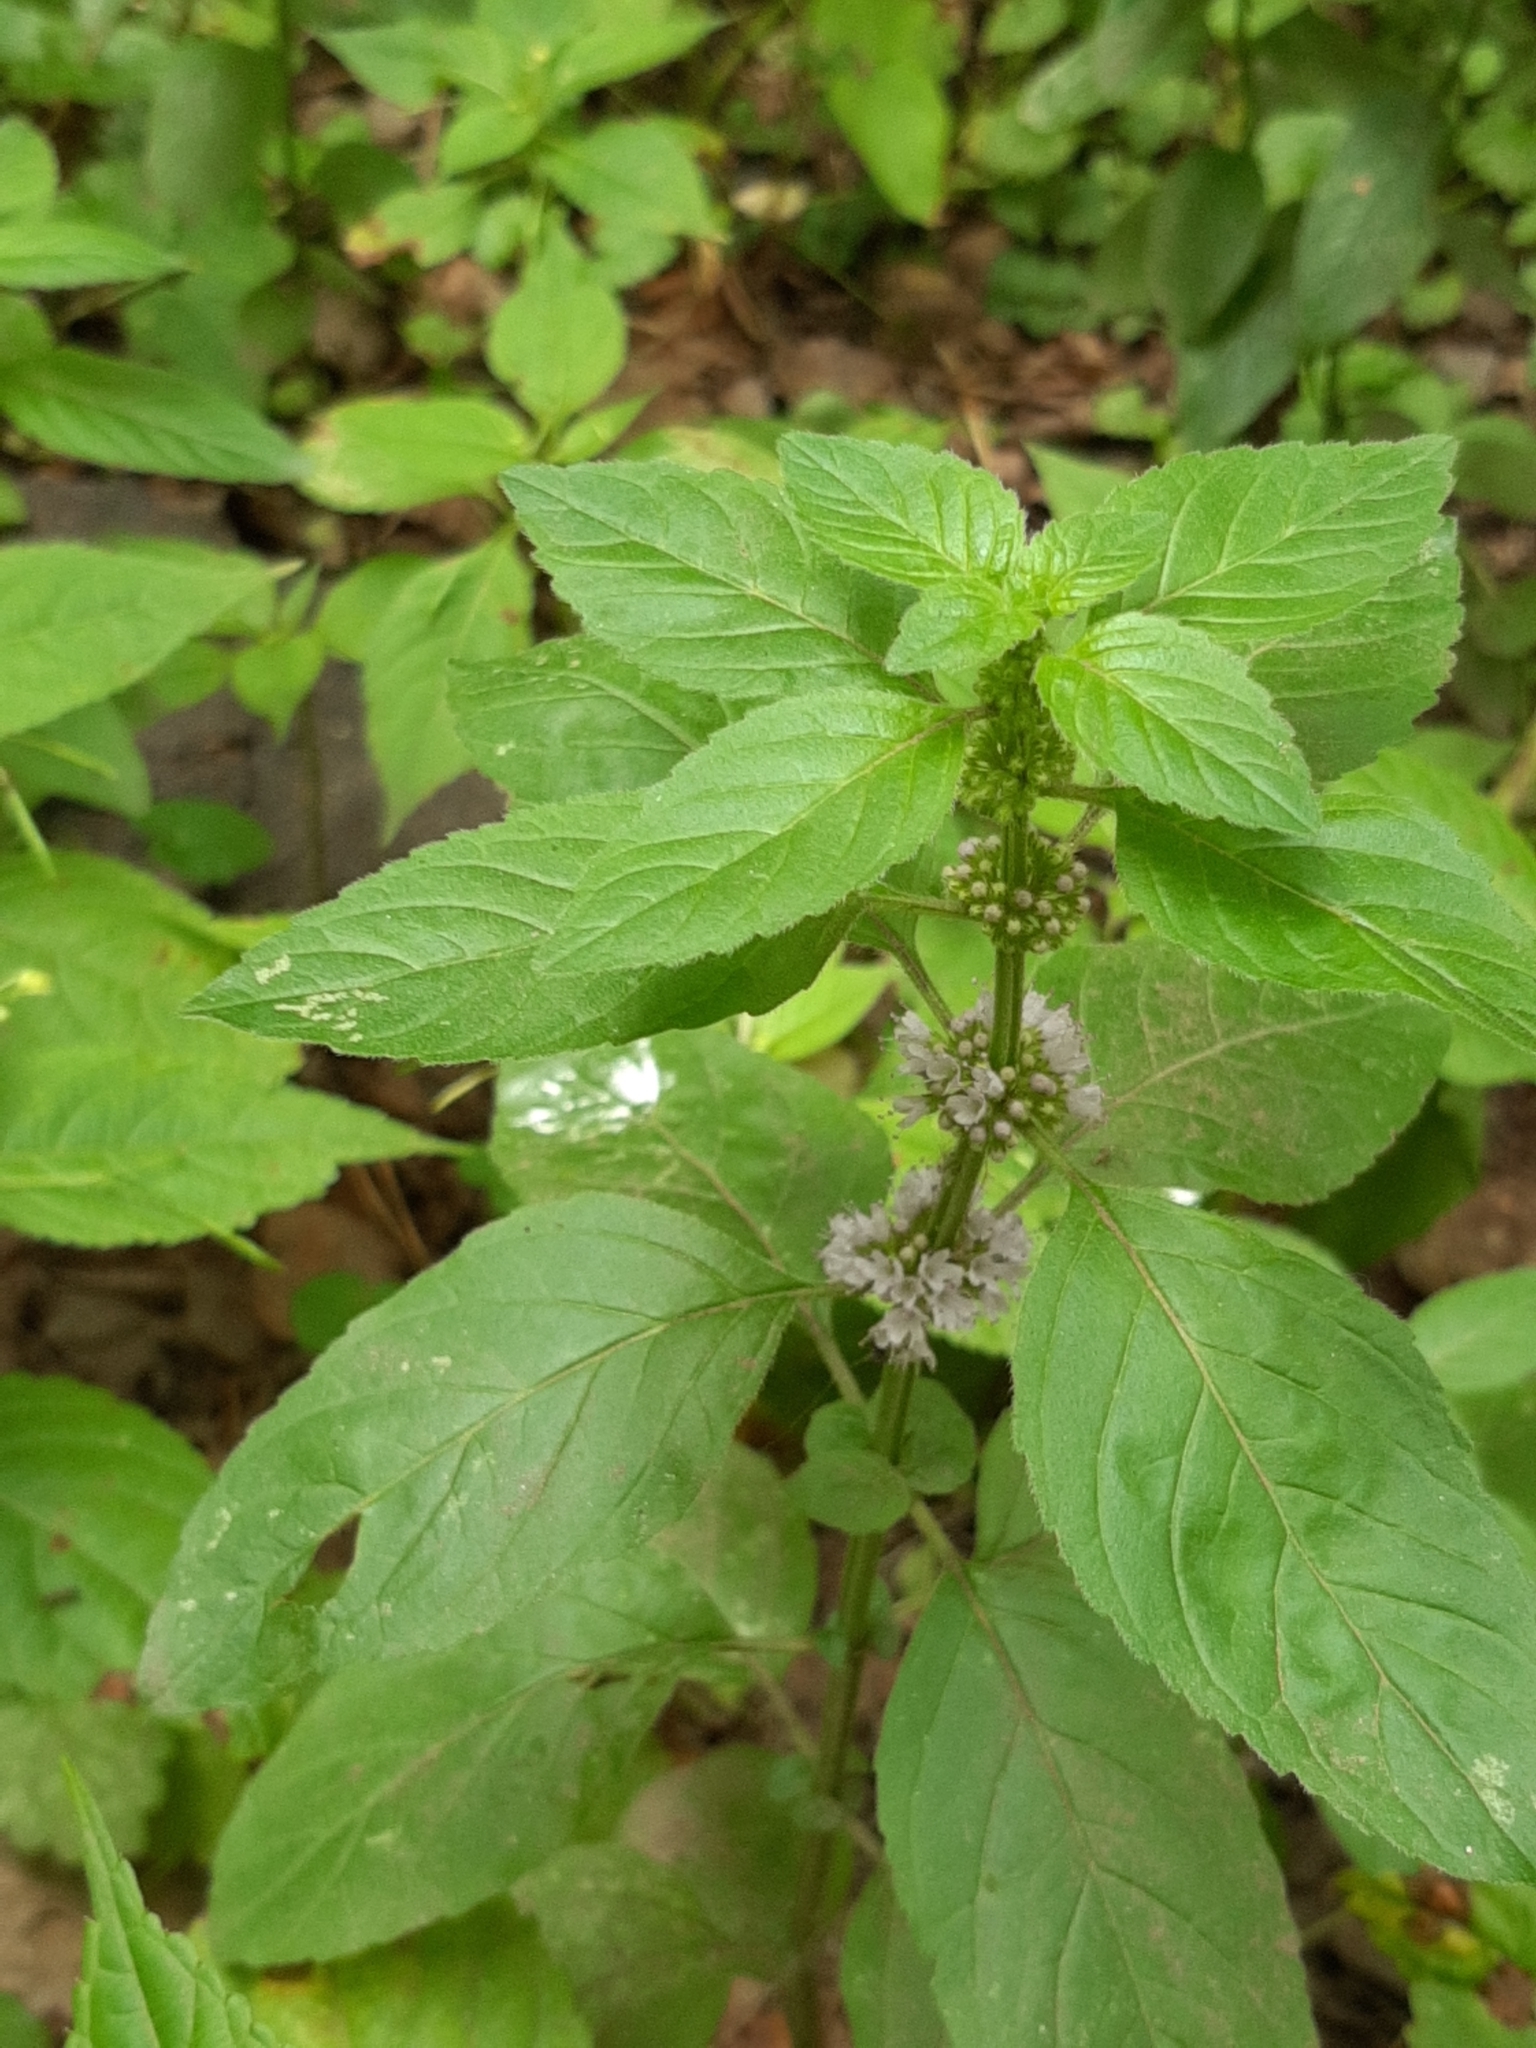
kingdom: Plantae
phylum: Tracheophyta
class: Magnoliopsida
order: Lamiales
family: Lamiaceae
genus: Mentha
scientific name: Mentha arvensis
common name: Corn mint
